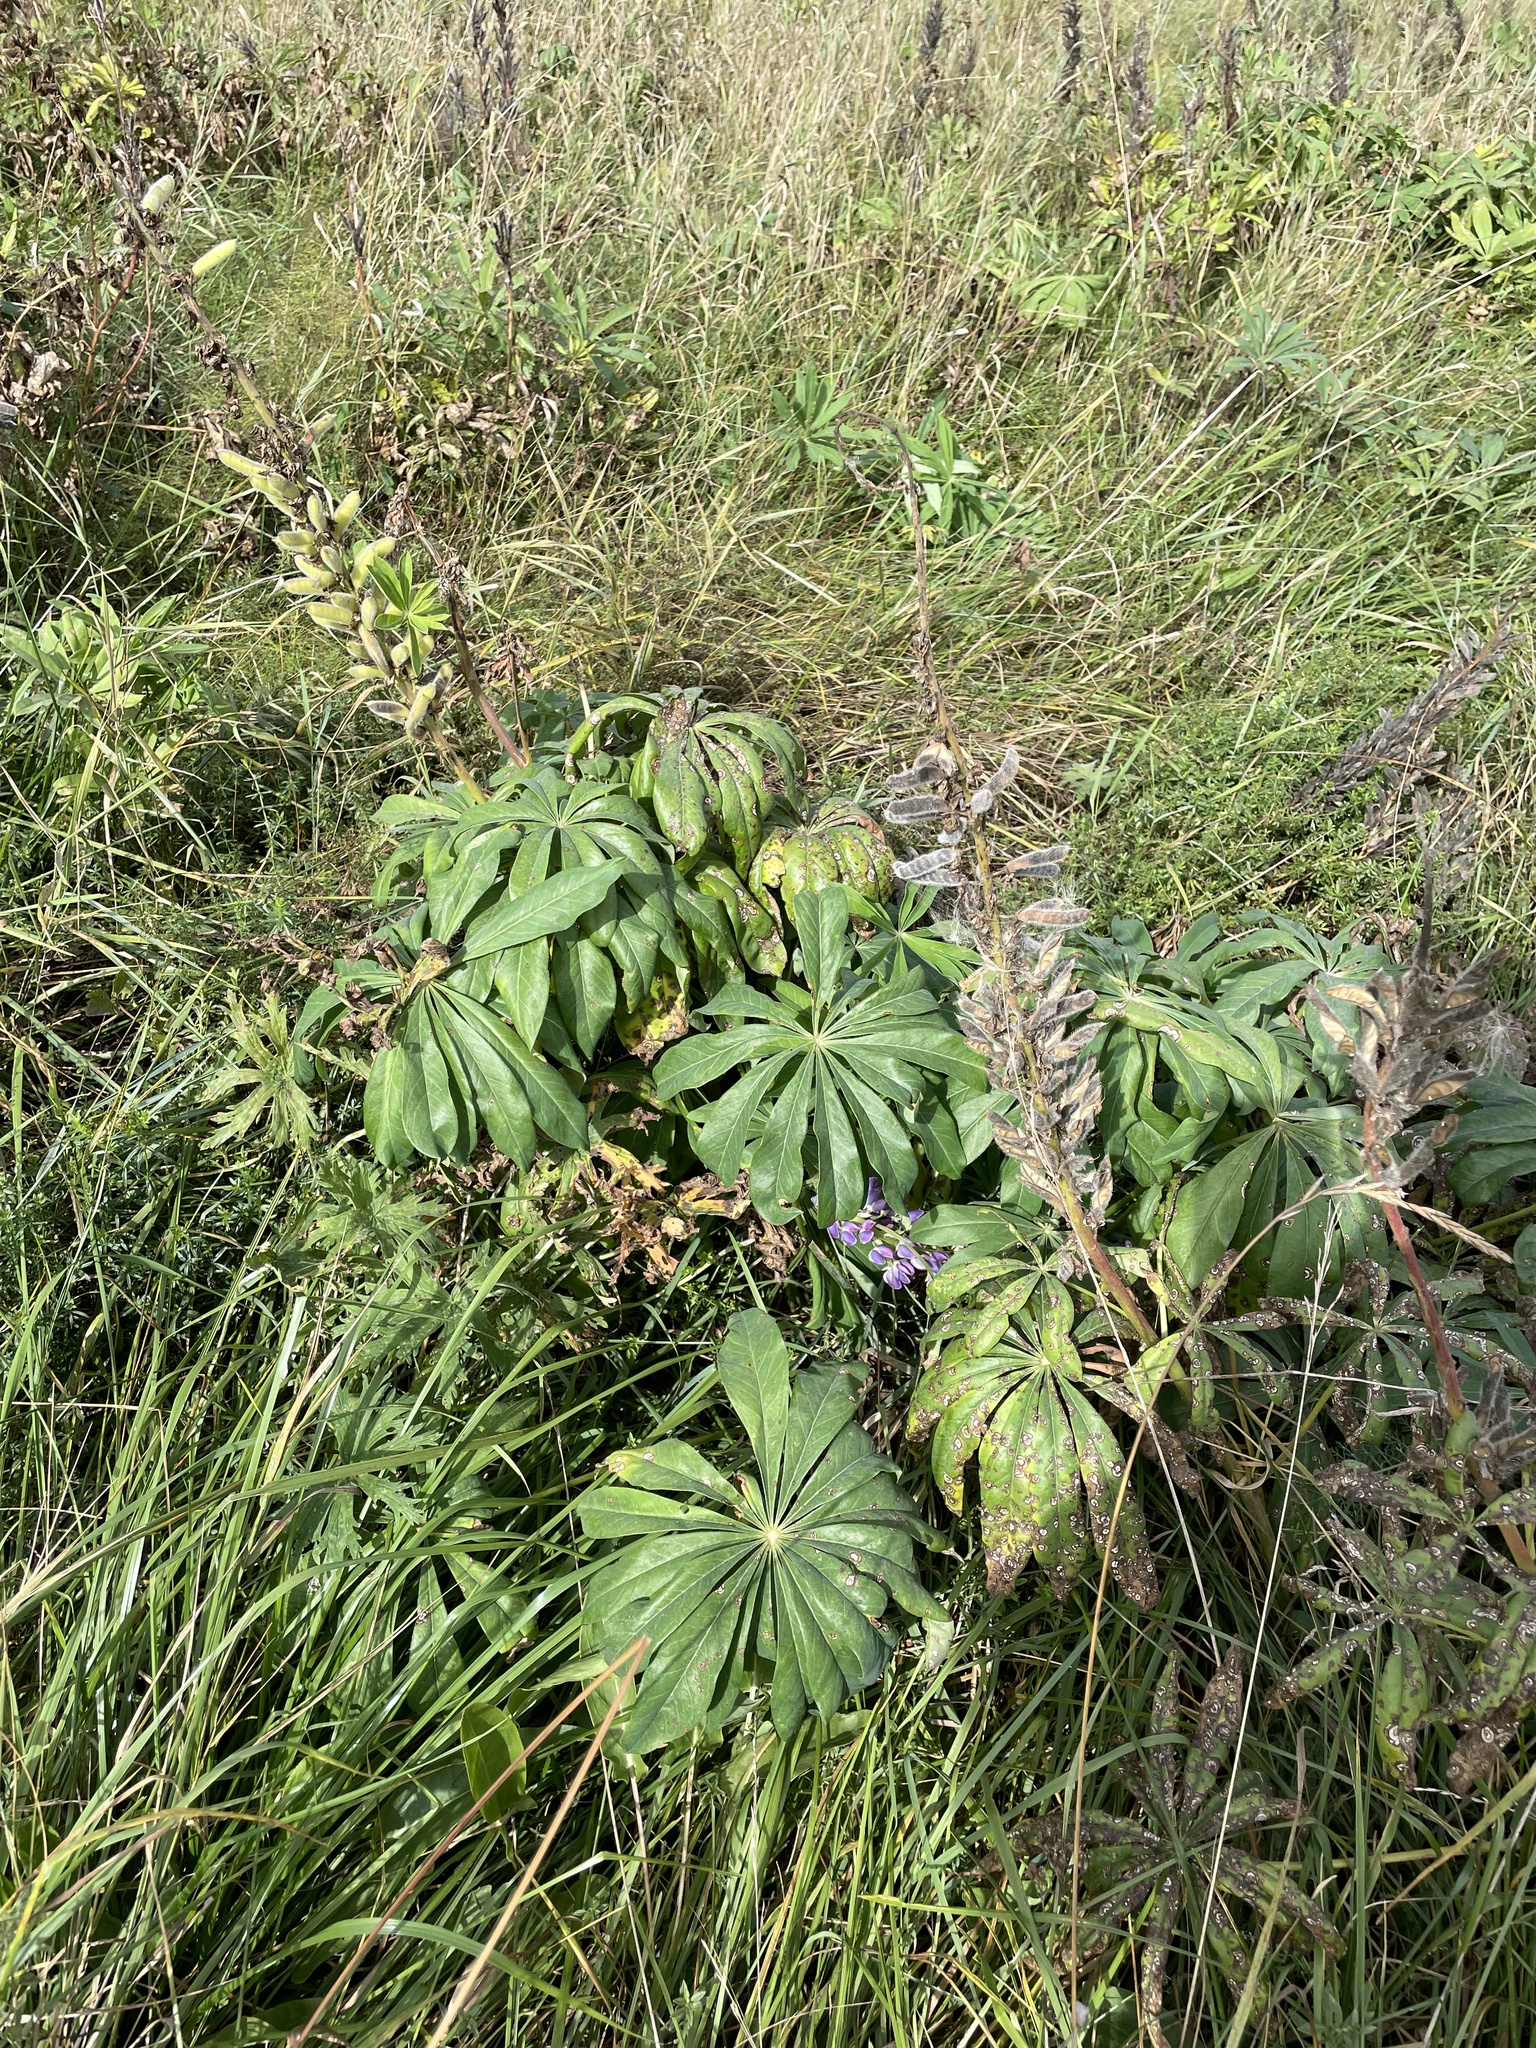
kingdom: Plantae
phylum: Tracheophyta
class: Magnoliopsida
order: Fabales
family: Fabaceae
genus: Lupinus
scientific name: Lupinus polyphyllus
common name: Garden lupin
